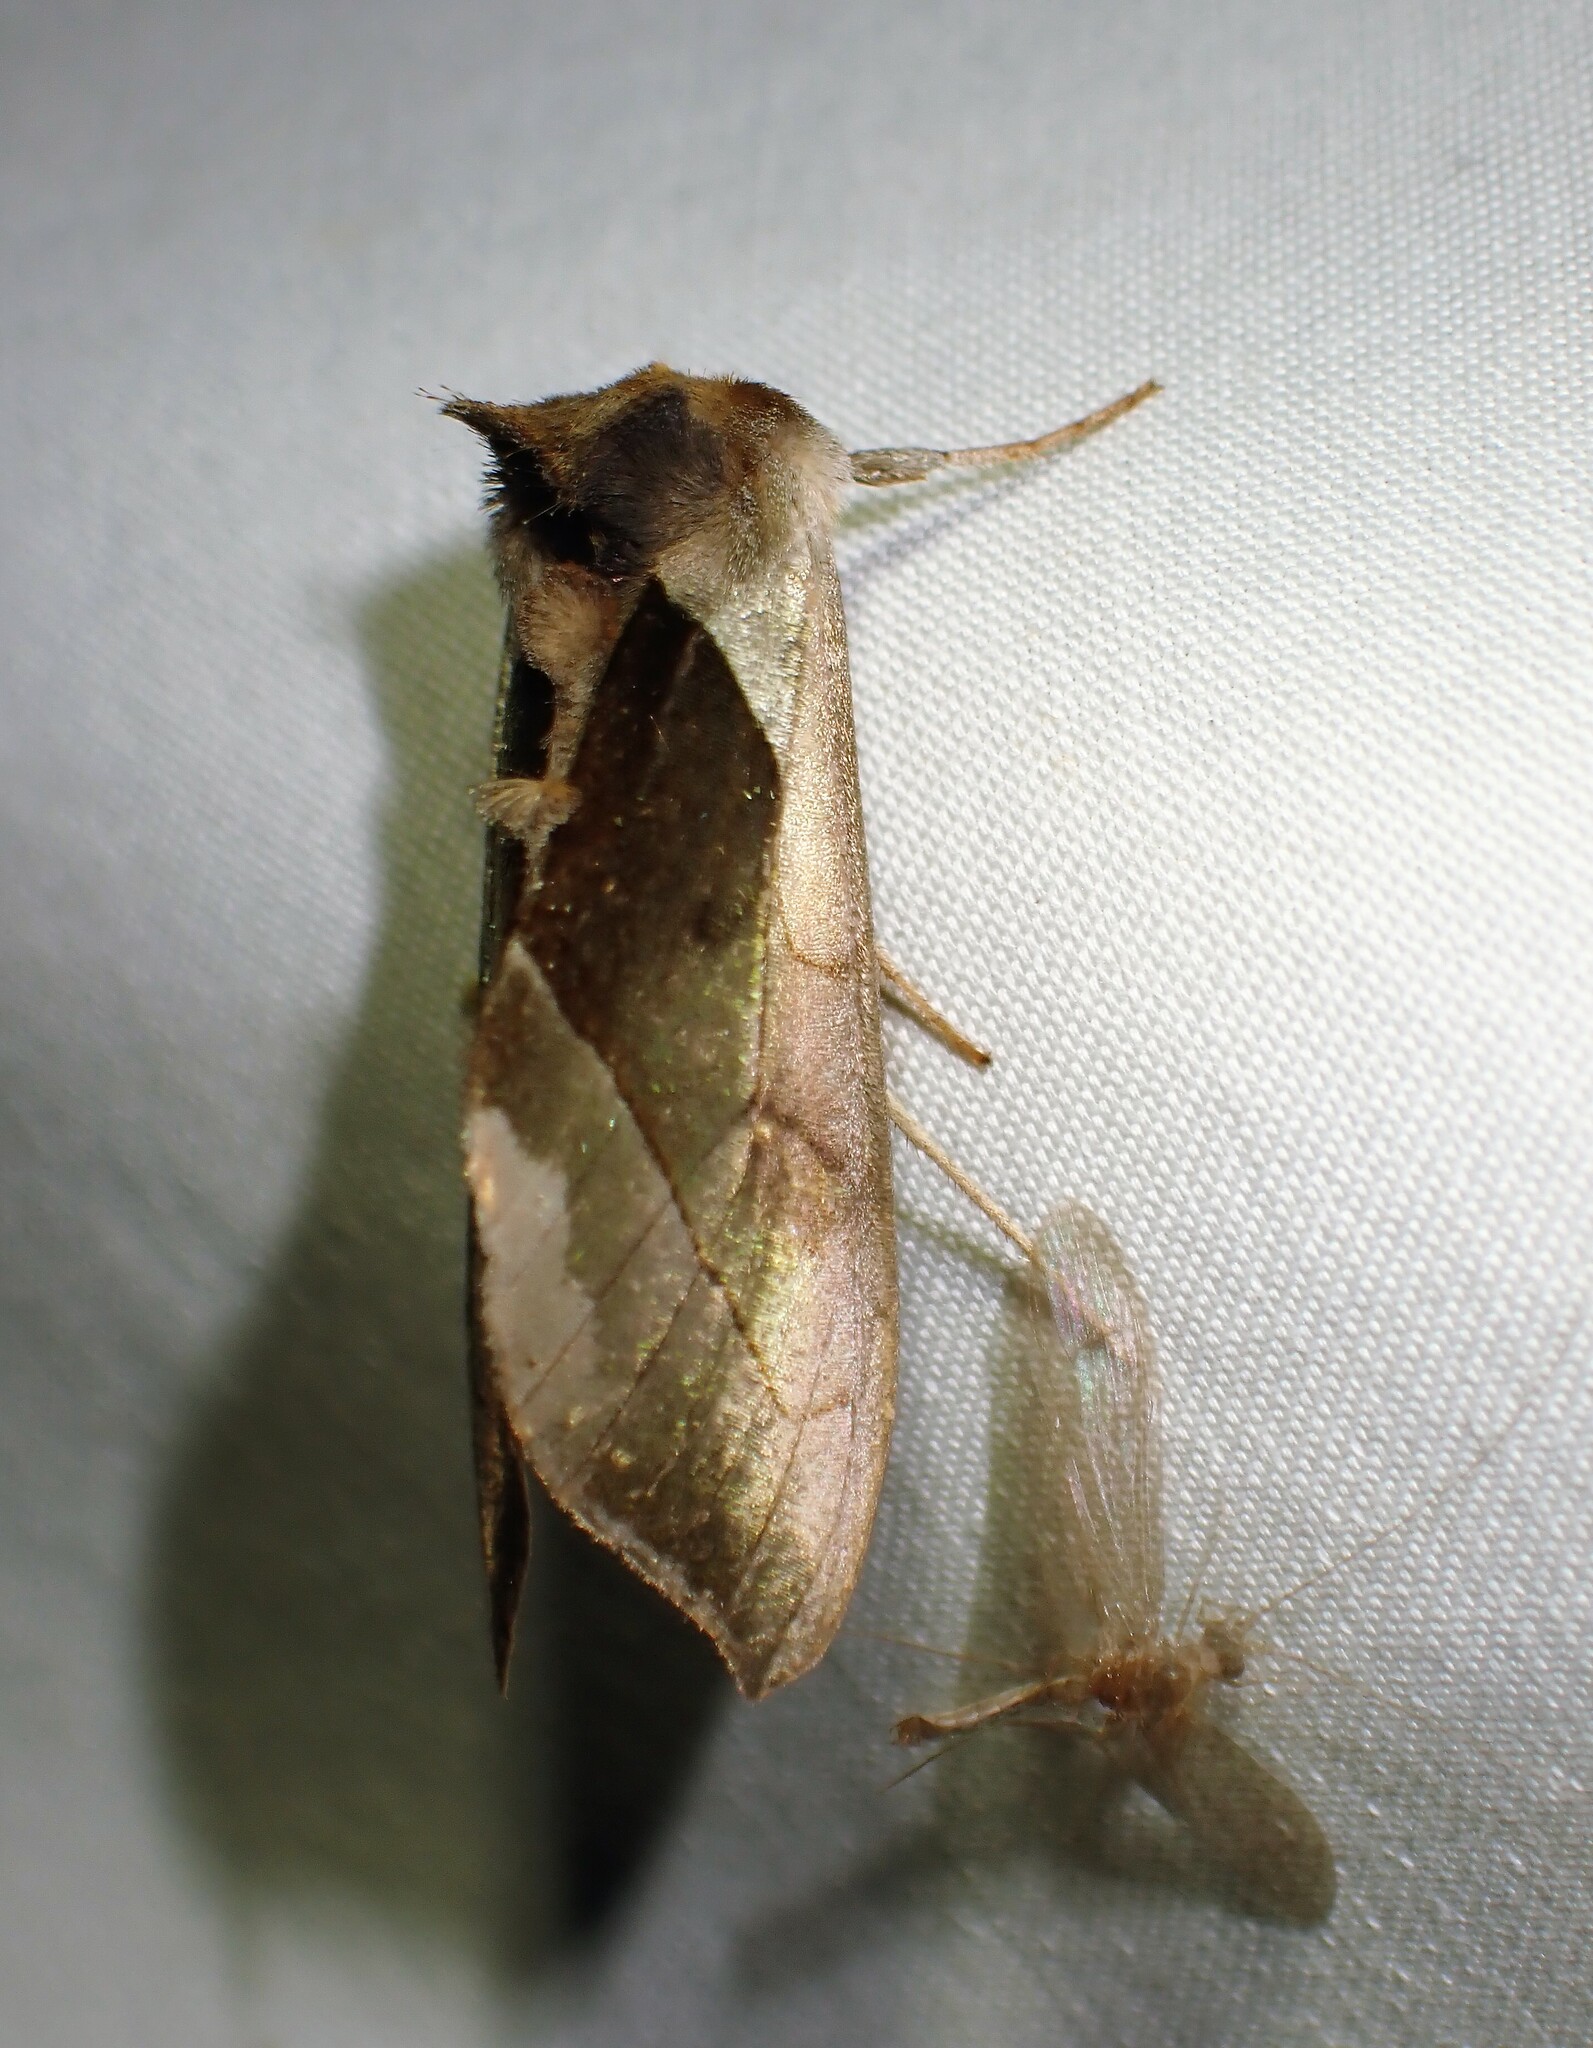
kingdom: Animalia
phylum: Arthropoda
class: Insecta
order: Lepidoptera
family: Noctuidae
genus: Diachrysia
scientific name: Diachrysia balluca
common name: Green-patched looper moth
